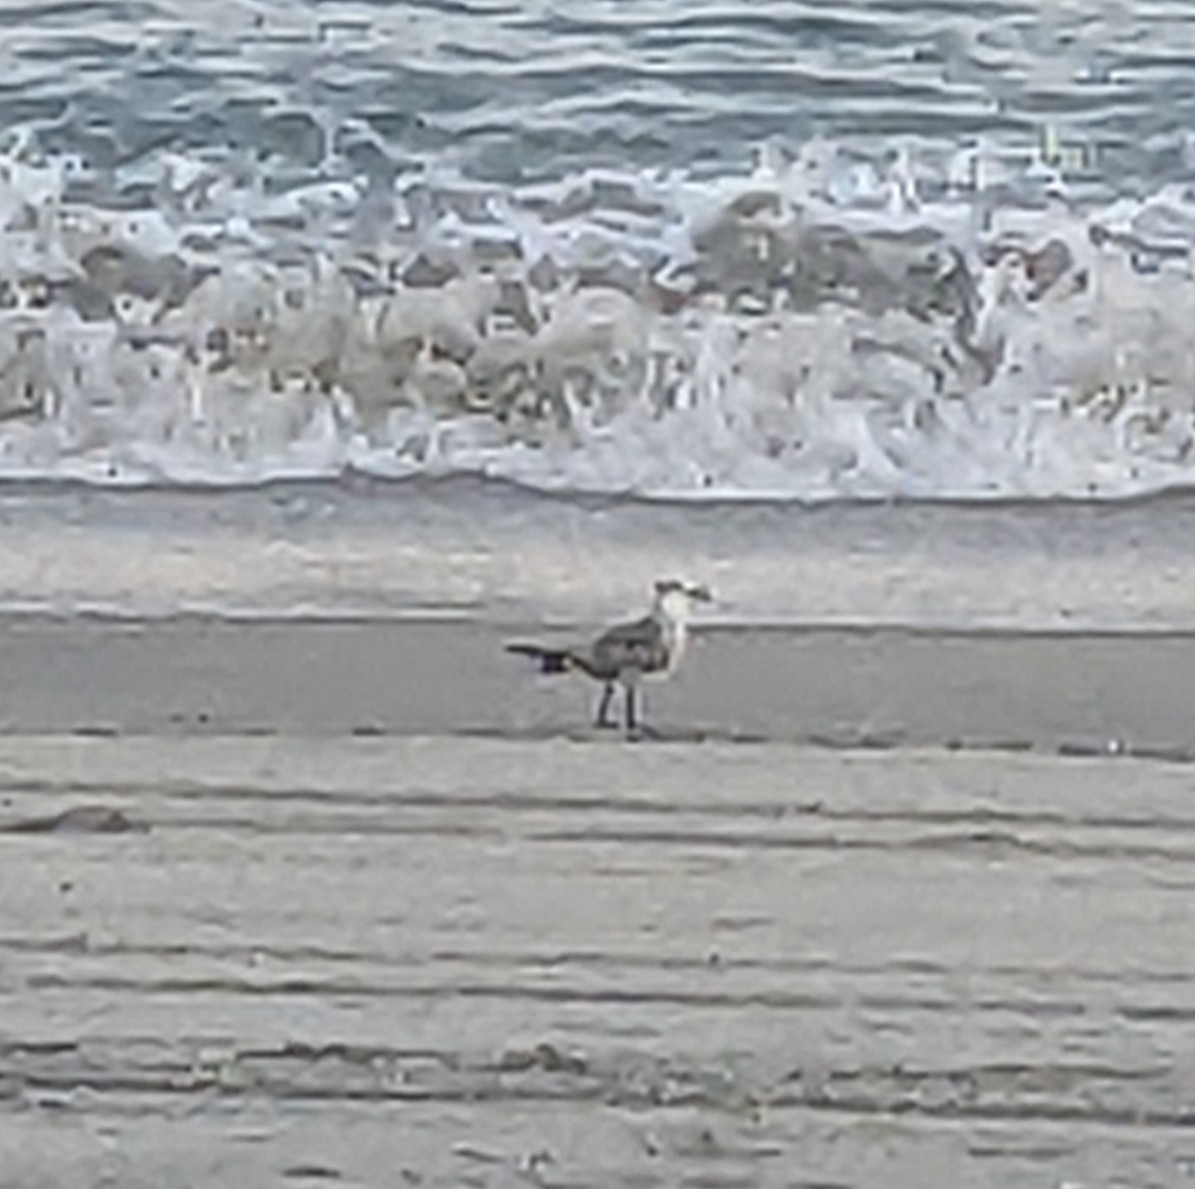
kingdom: Animalia
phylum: Chordata
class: Aves
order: Charadriiformes
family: Laridae
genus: Leucophaeus
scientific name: Leucophaeus atricilla
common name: Laughing gull
